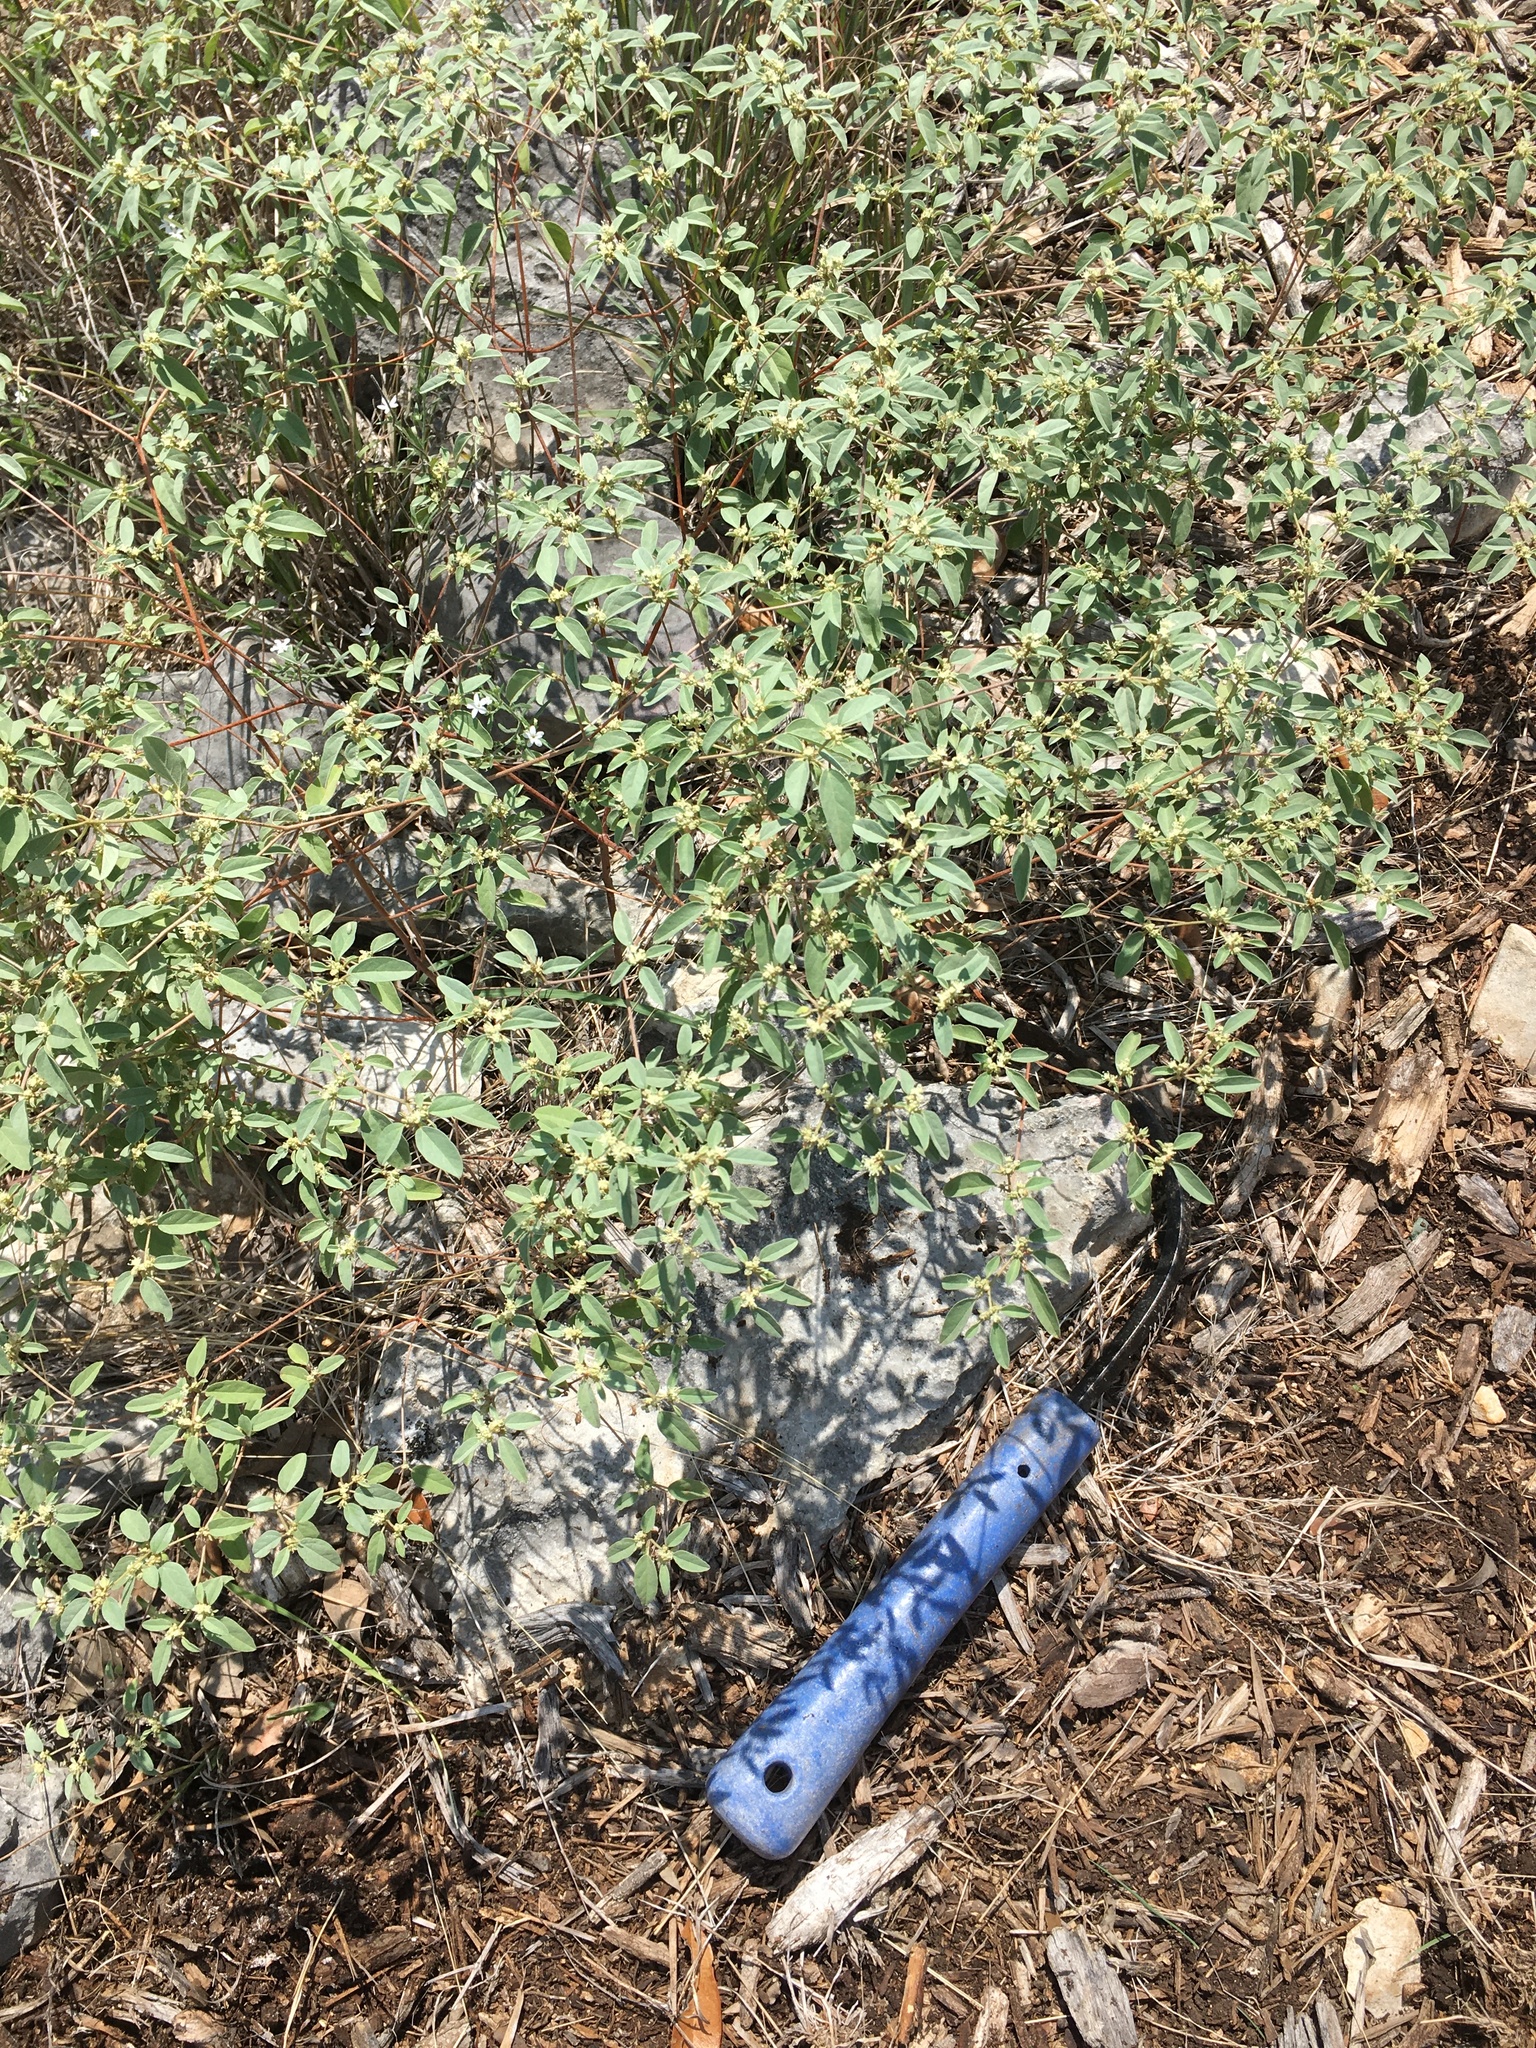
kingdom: Plantae
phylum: Tracheophyta
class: Magnoliopsida
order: Malpighiales
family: Euphorbiaceae
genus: Croton
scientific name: Croton monanthogynus
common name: One-seed croton
